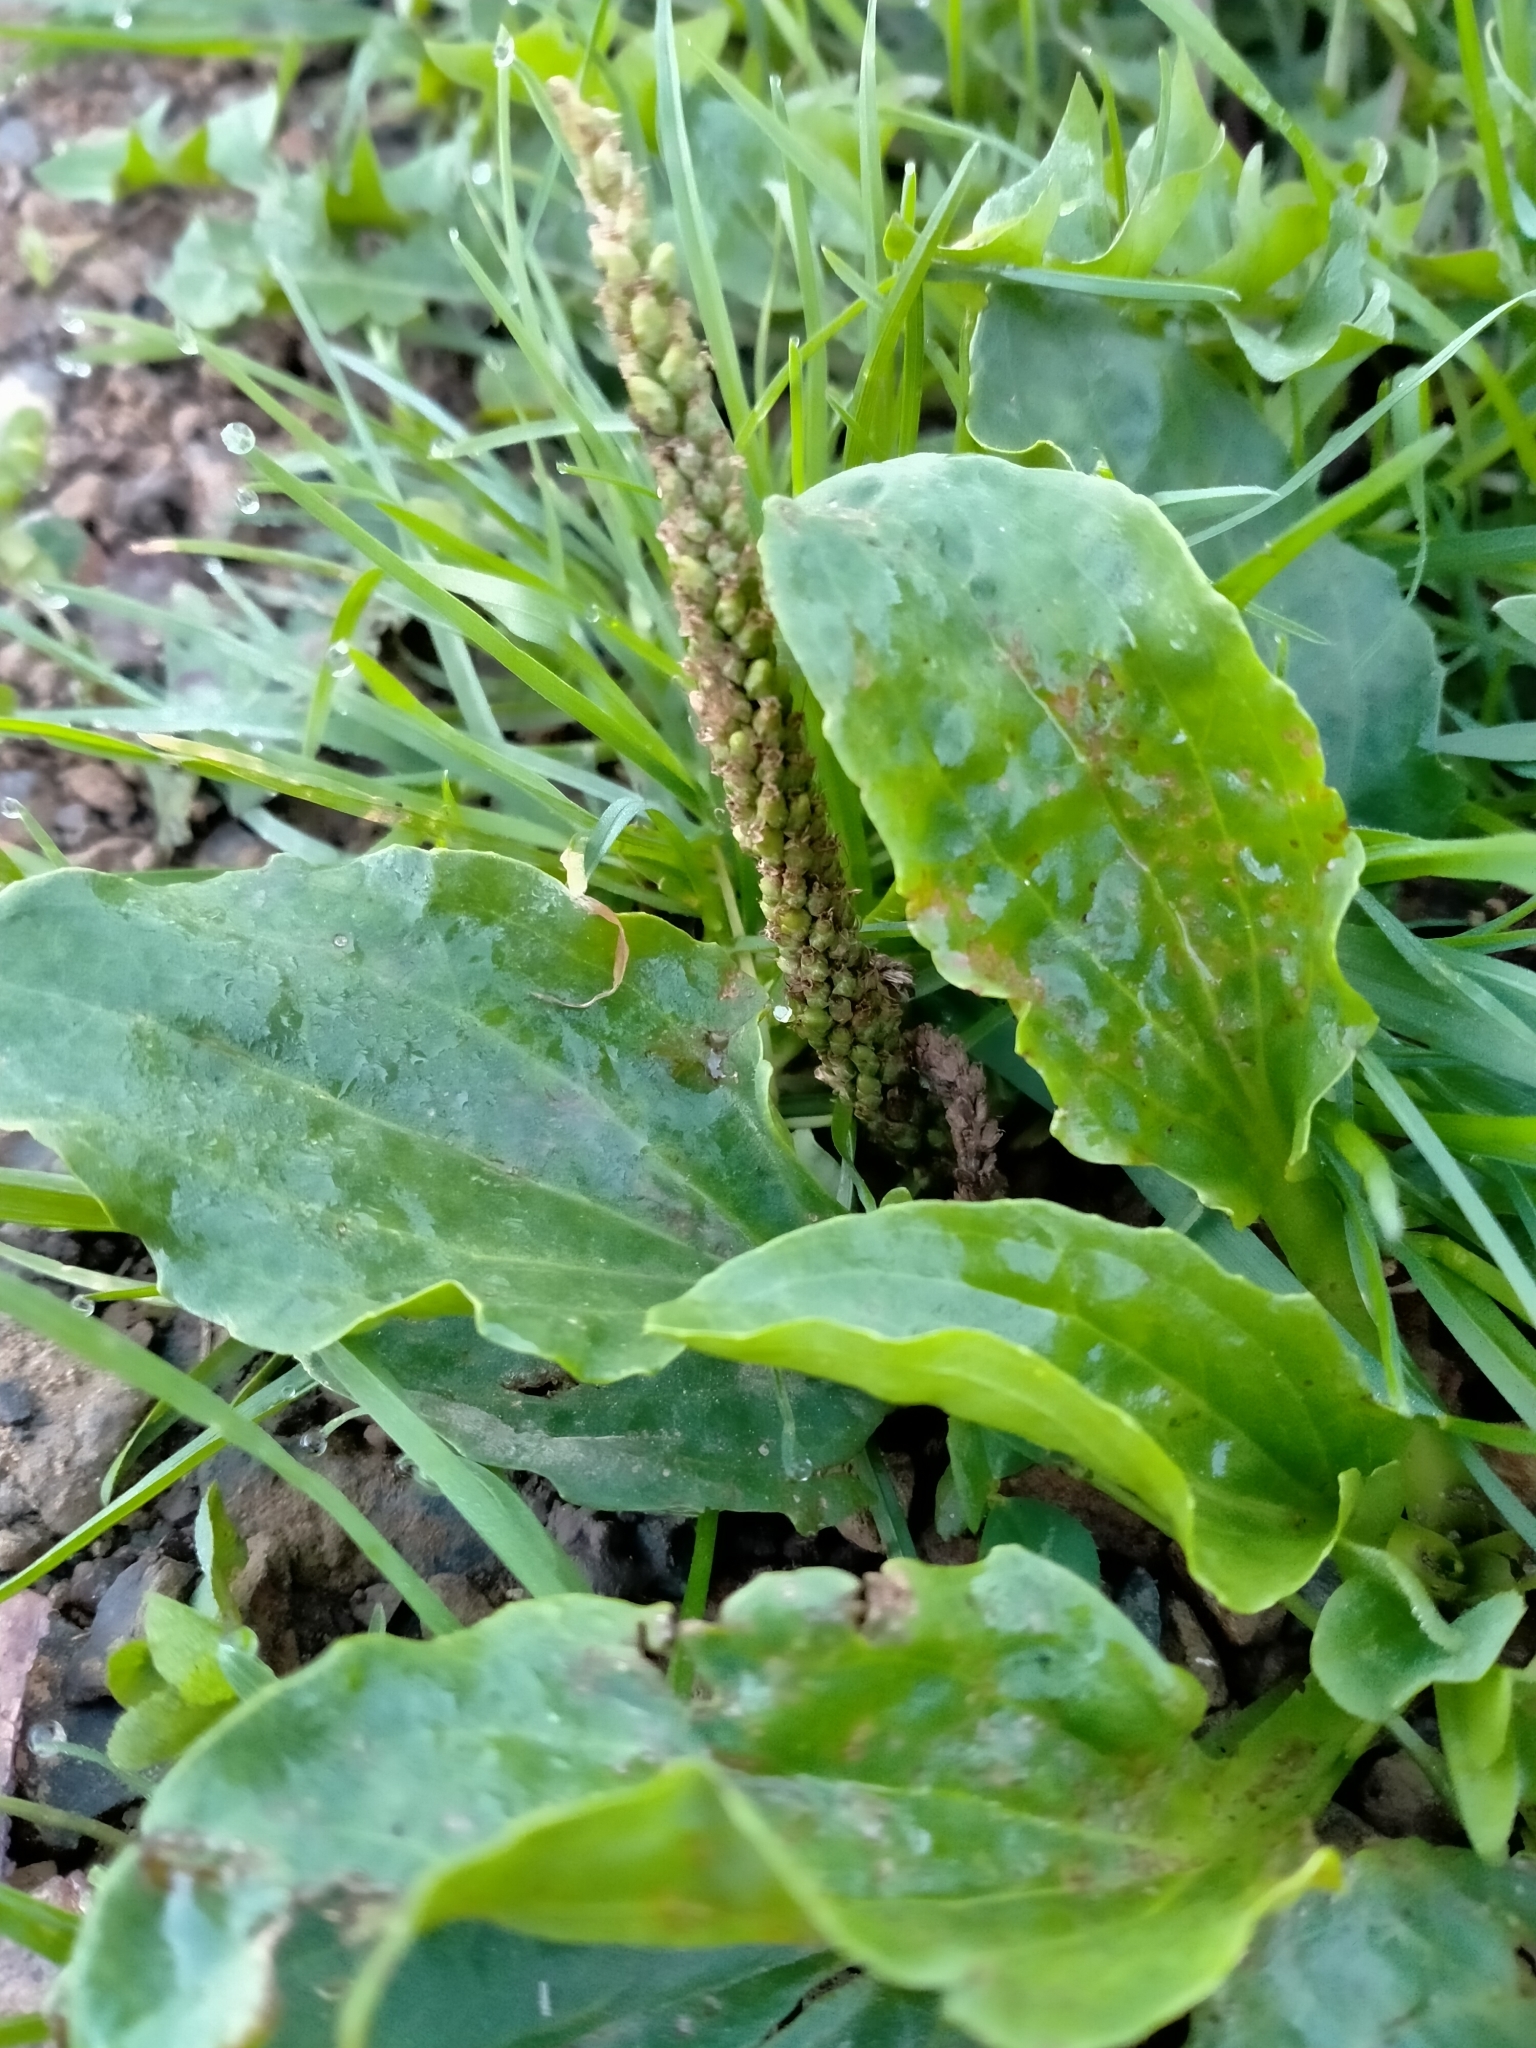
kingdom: Plantae
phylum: Tracheophyta
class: Magnoliopsida
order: Lamiales
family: Plantaginaceae
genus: Plantago
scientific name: Plantago major
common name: Common plantain
